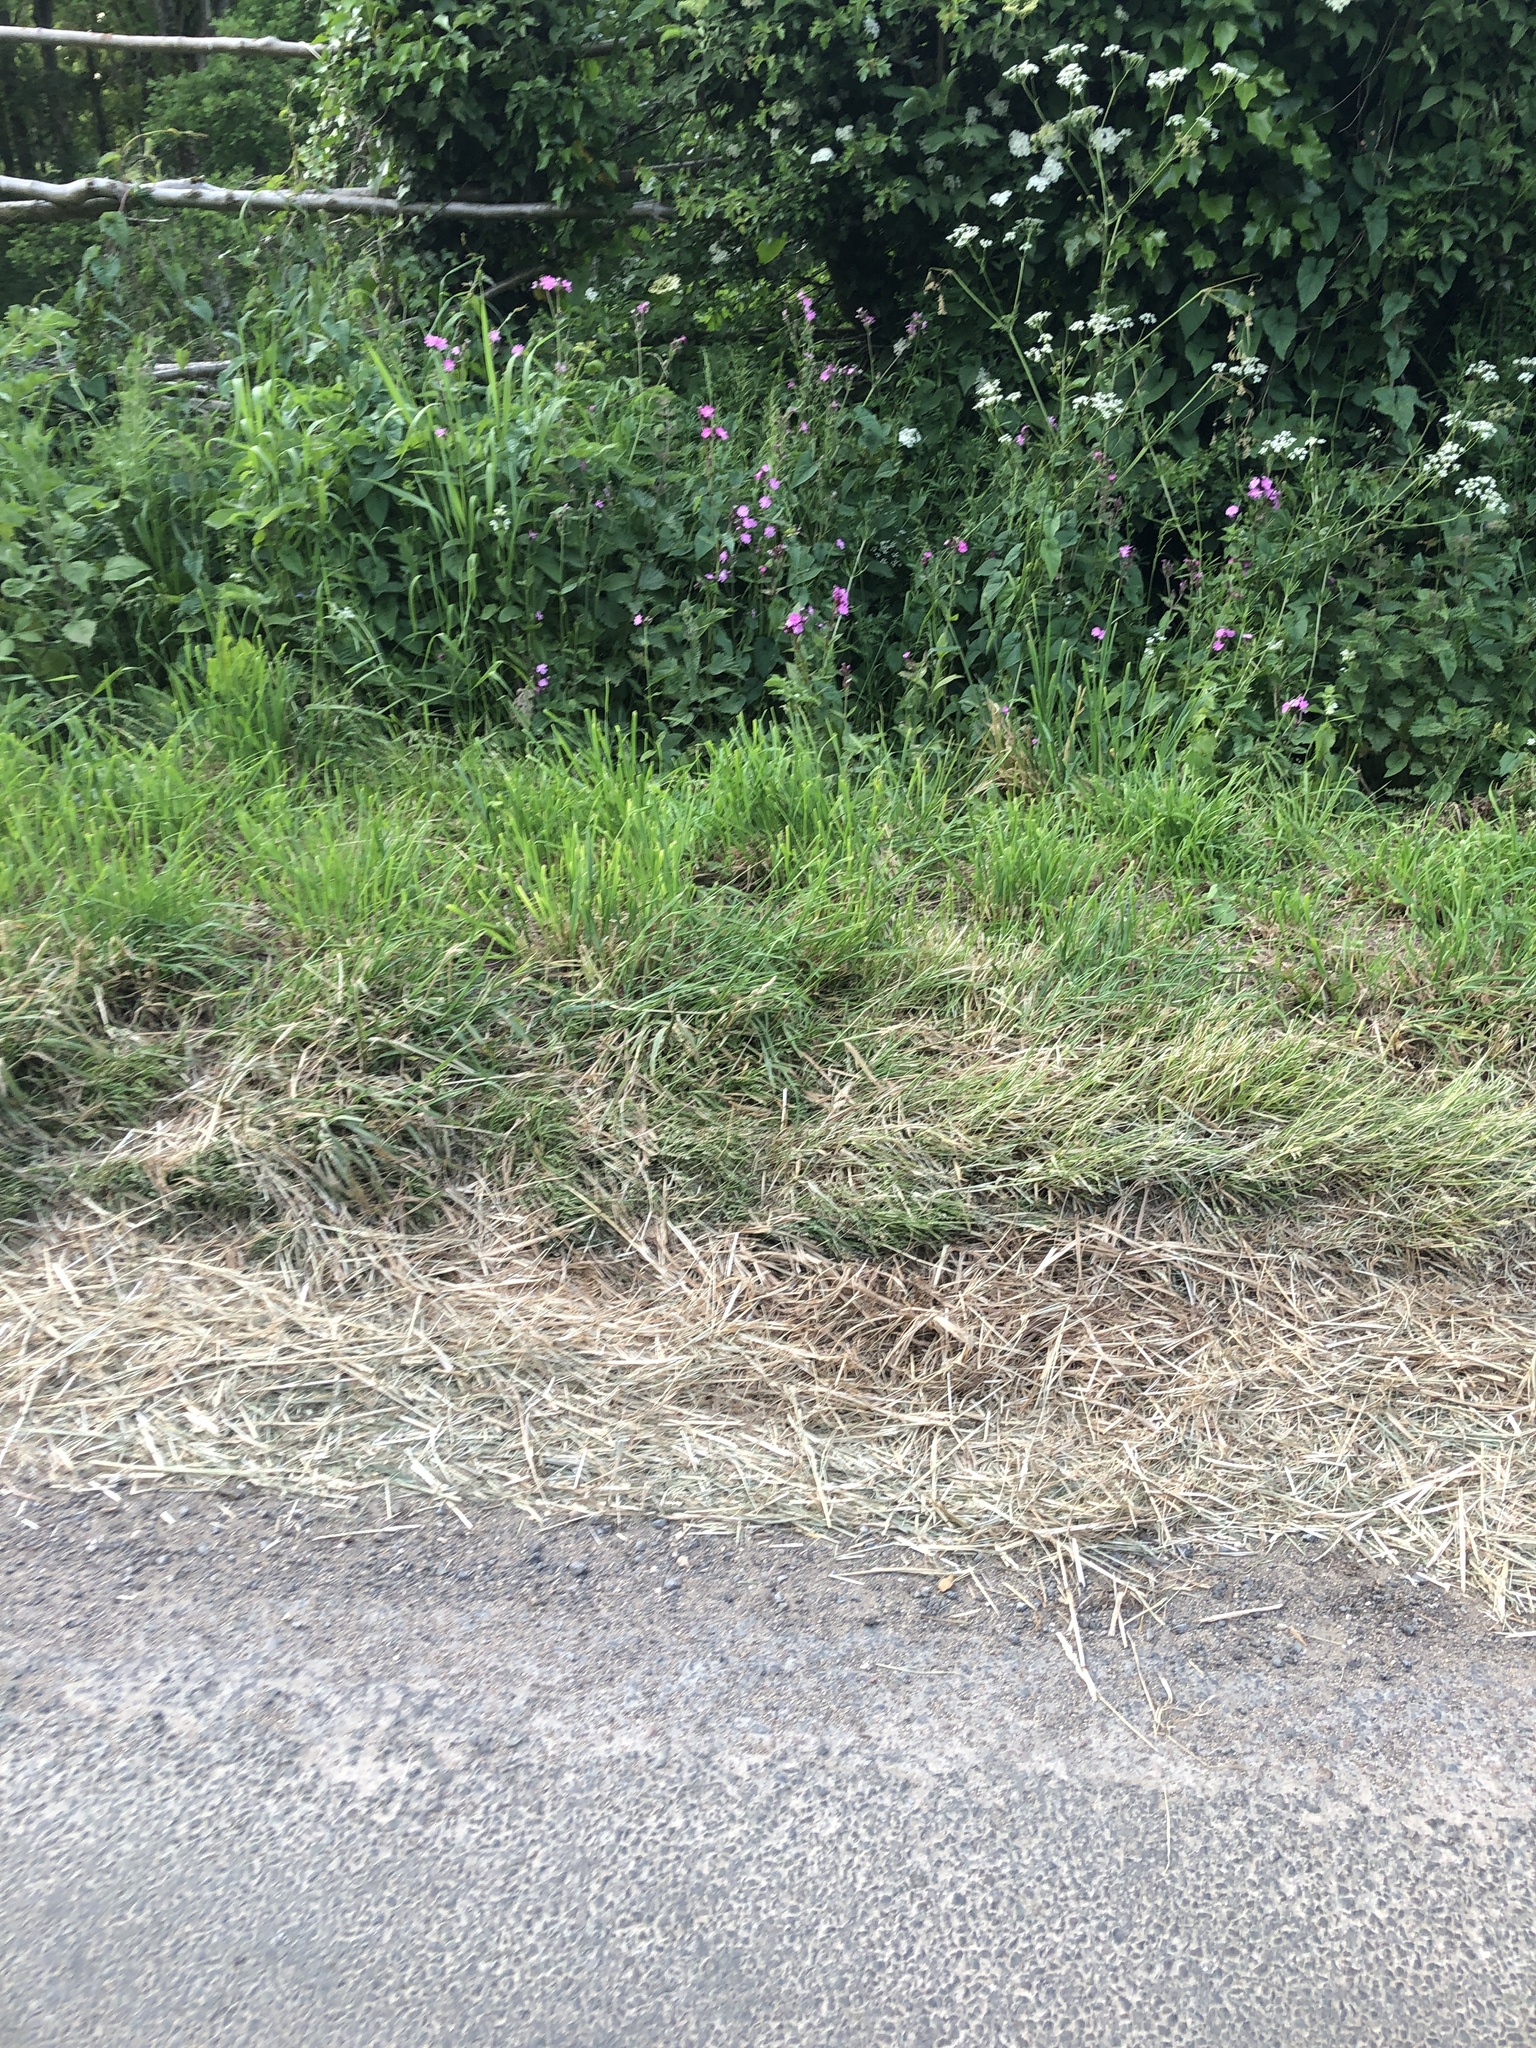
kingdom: Plantae
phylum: Tracheophyta
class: Magnoliopsida
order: Caryophyllales
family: Caryophyllaceae
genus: Silene
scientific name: Silene dioica
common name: Red campion
